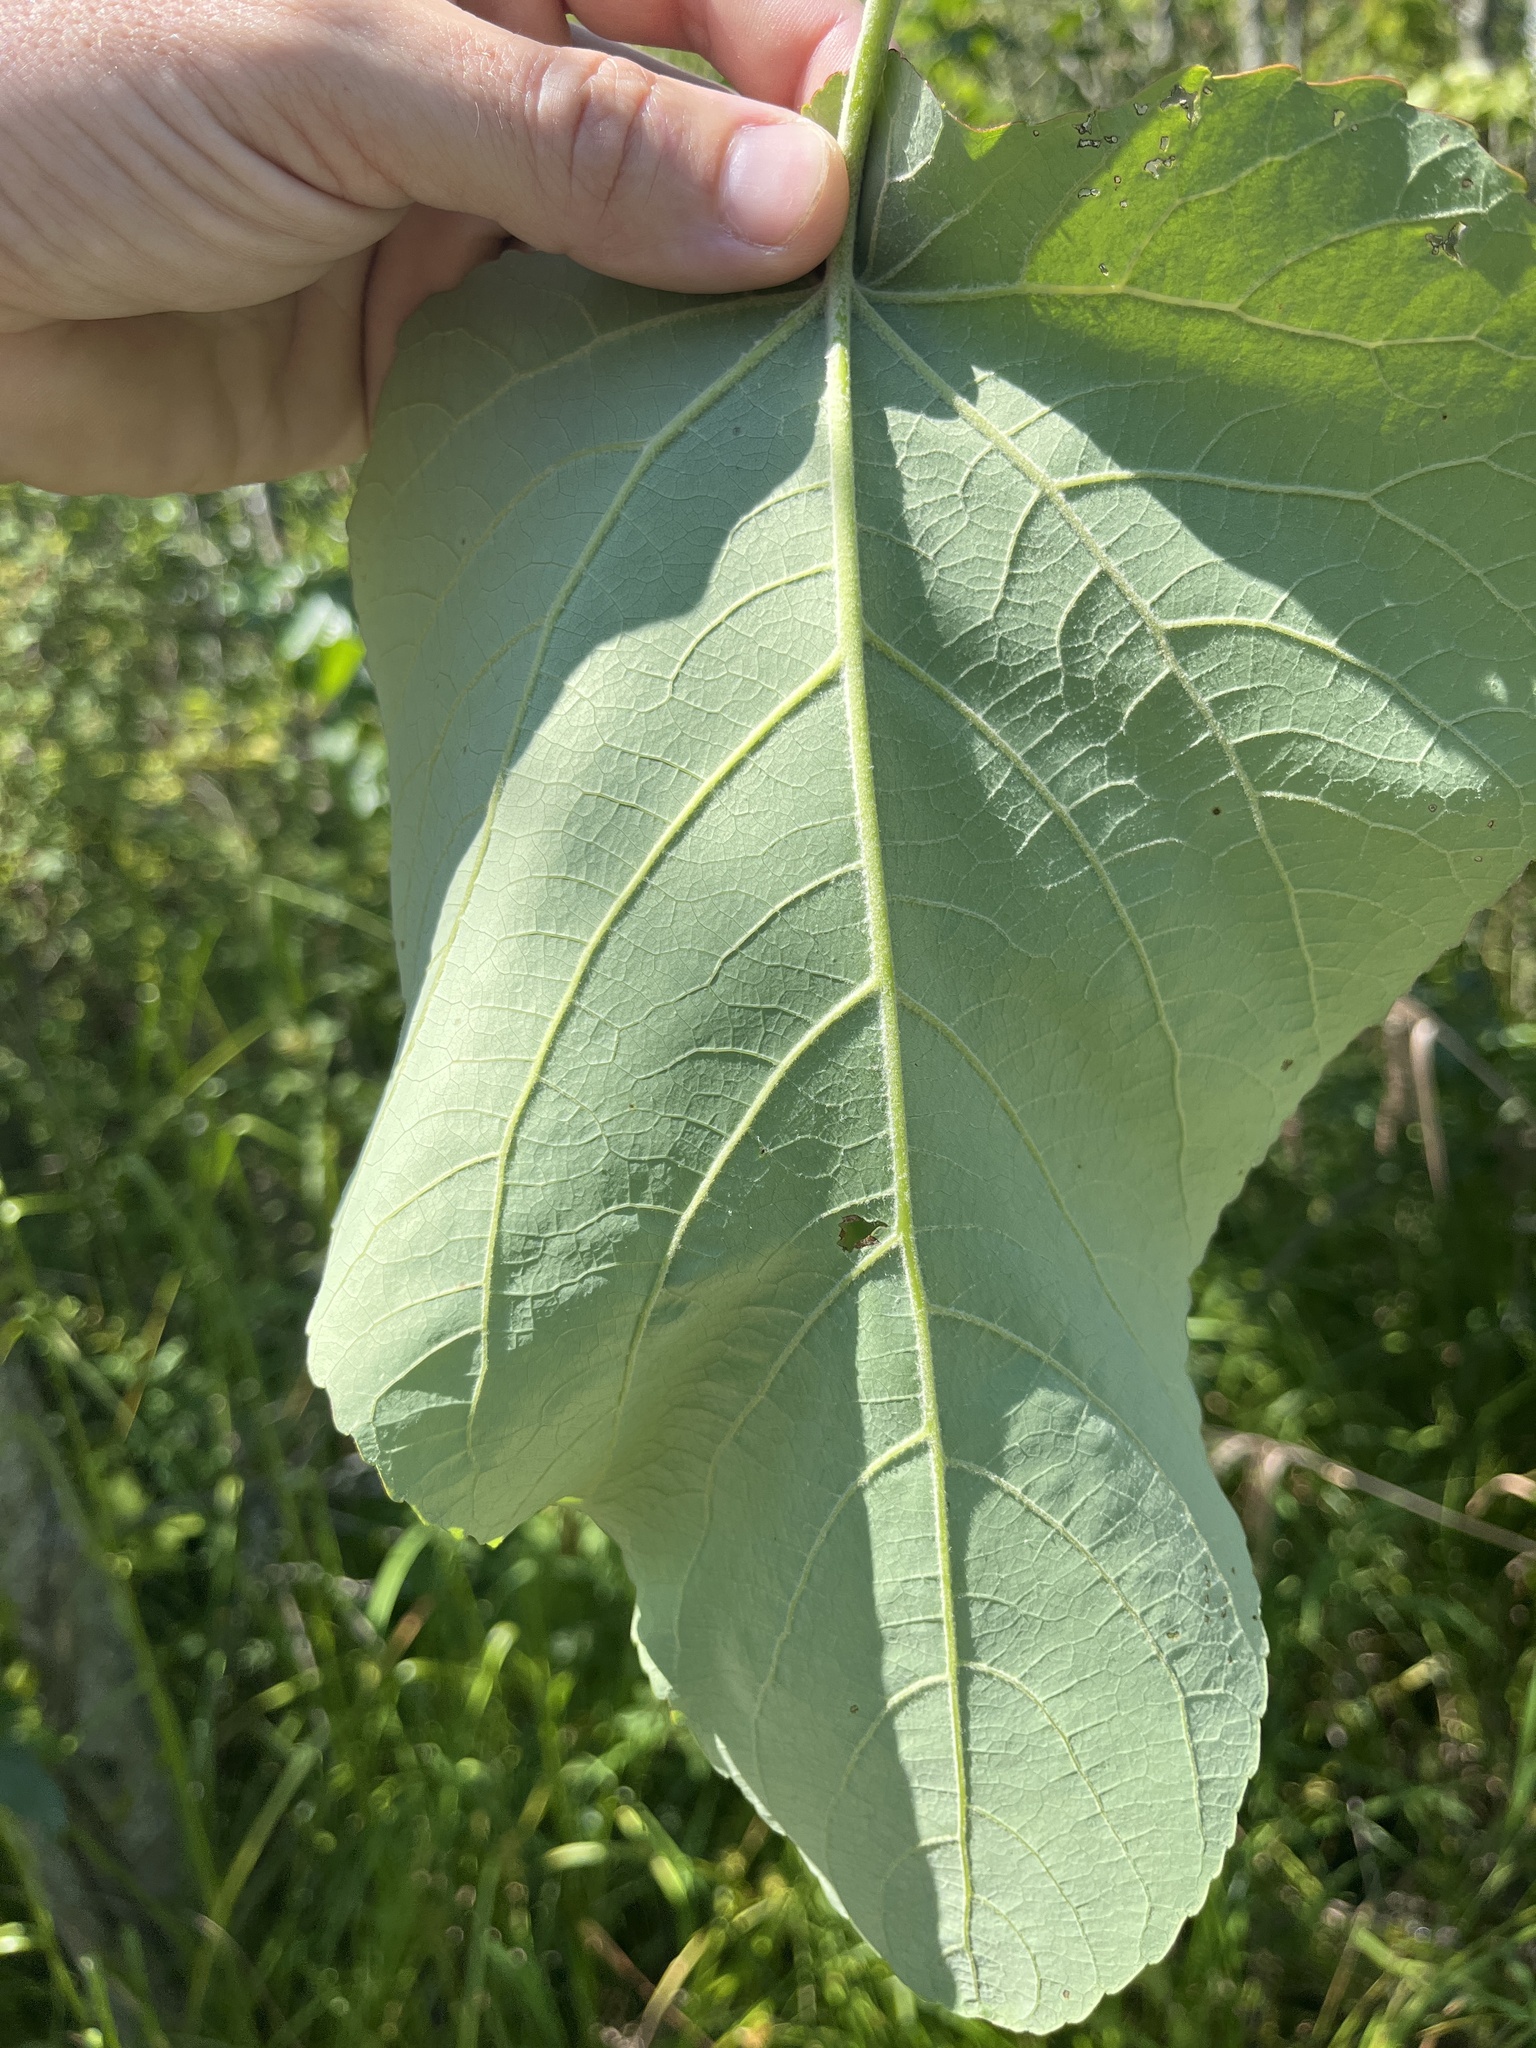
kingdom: Plantae
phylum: Tracheophyta
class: Magnoliopsida
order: Malpighiales
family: Salicaceae
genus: Populus
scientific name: Populus heterophylla
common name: Downy poplar
